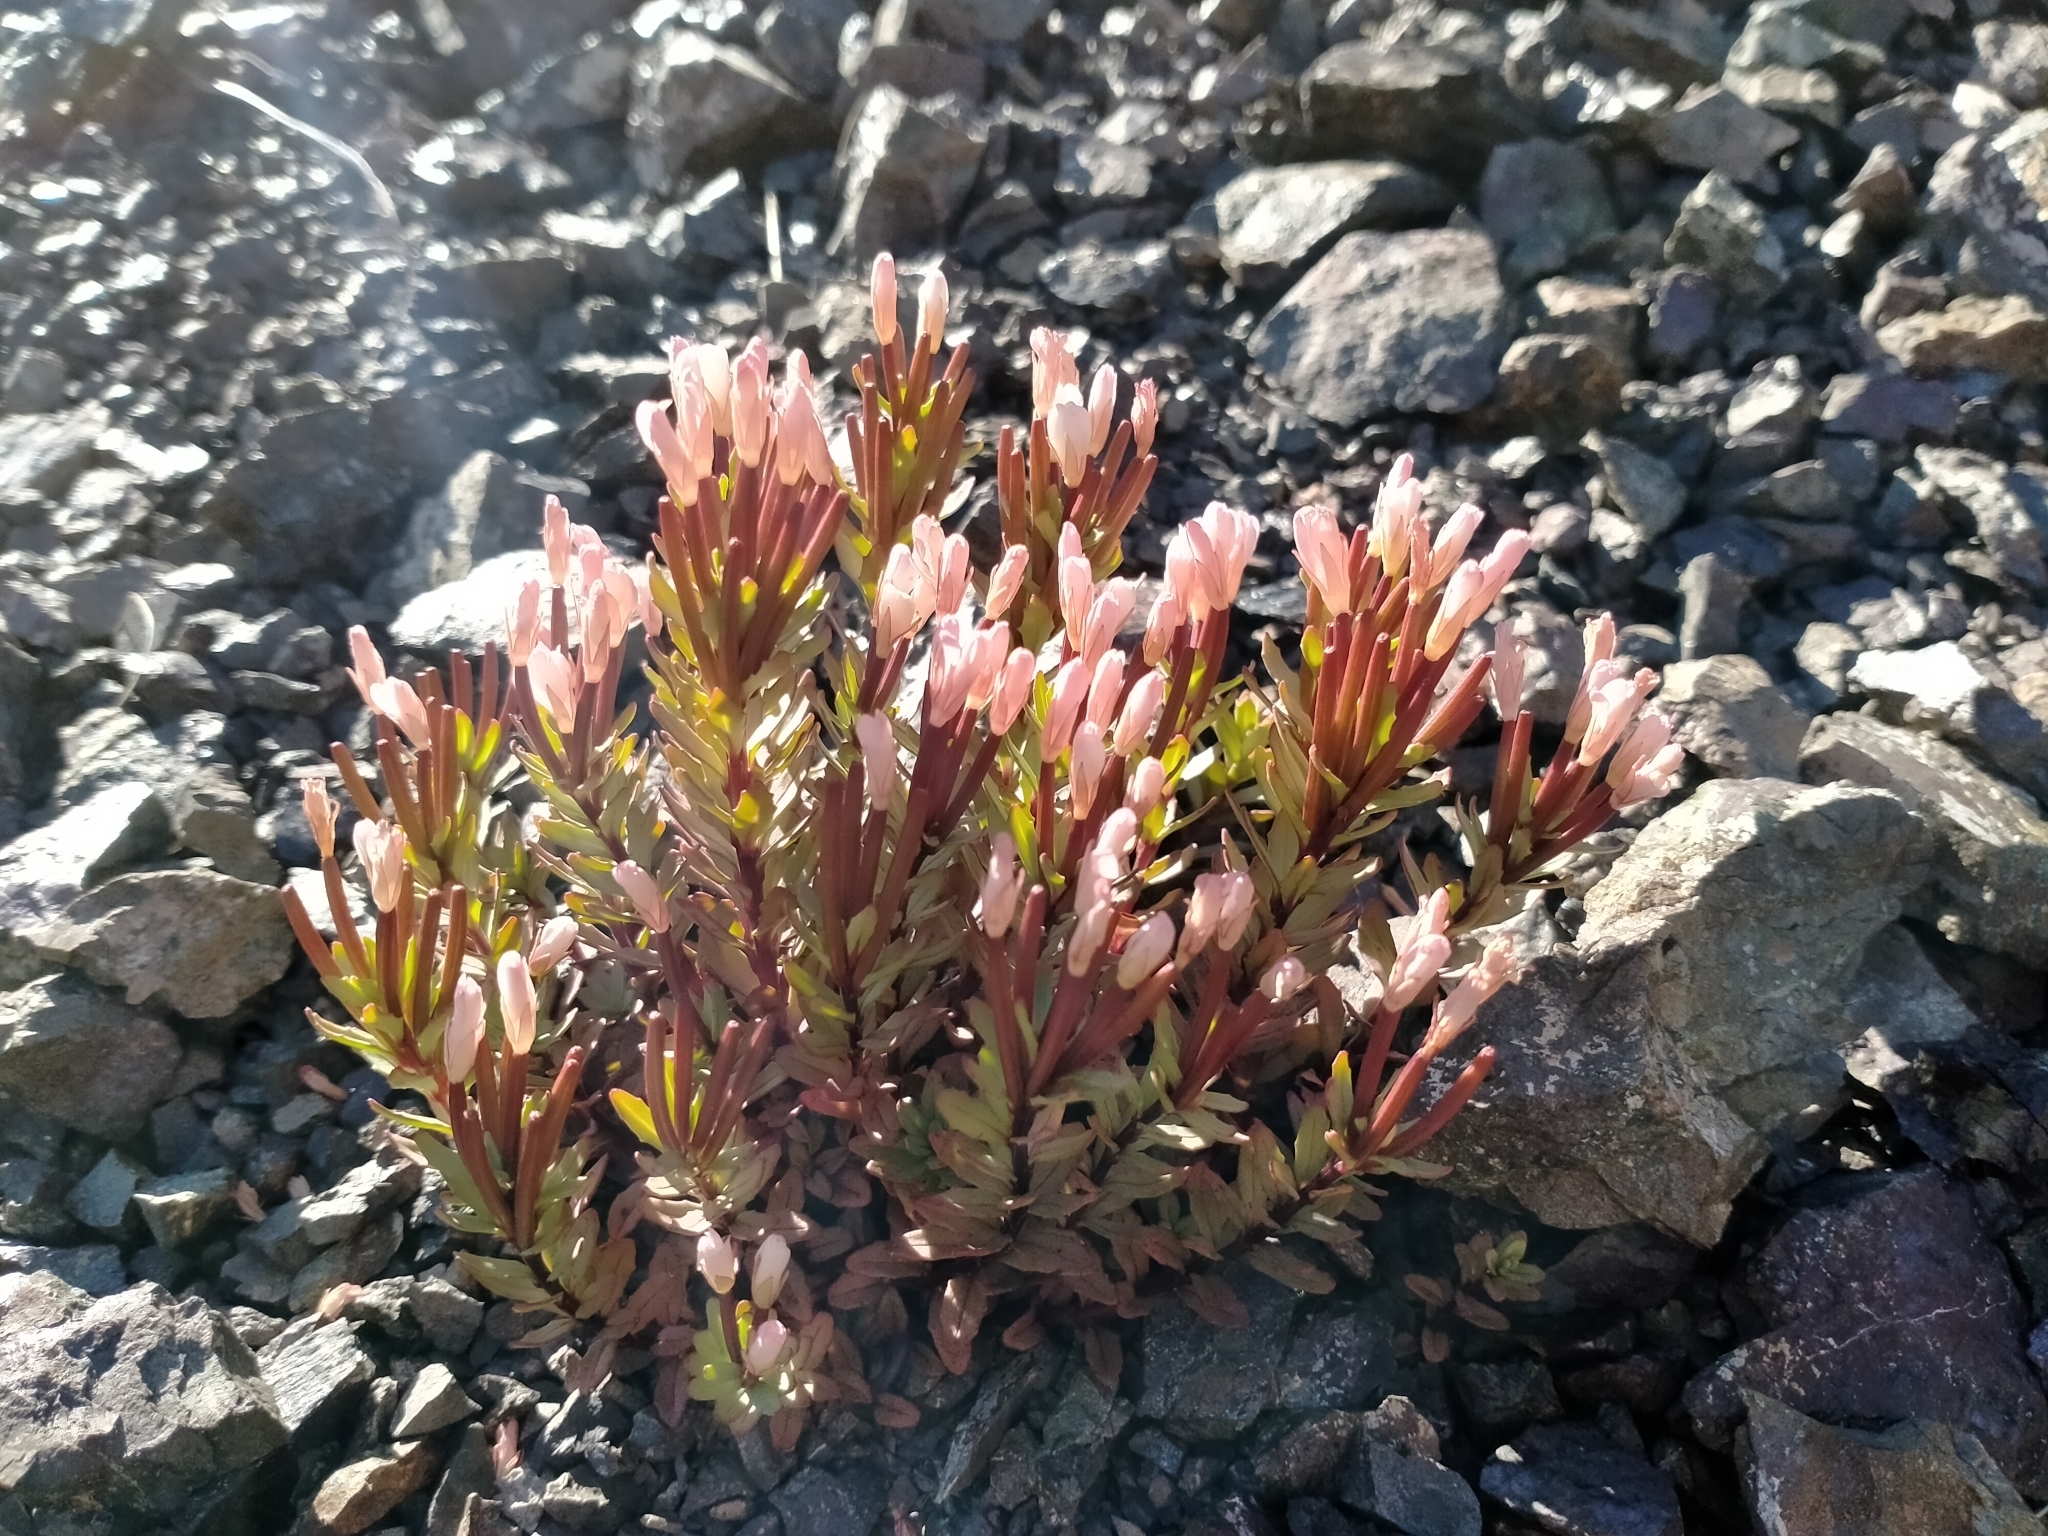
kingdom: Plantae
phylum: Tracheophyta
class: Magnoliopsida
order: Myrtales
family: Onagraceae
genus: Epilobium
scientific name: Epilobium pycnostachyum
